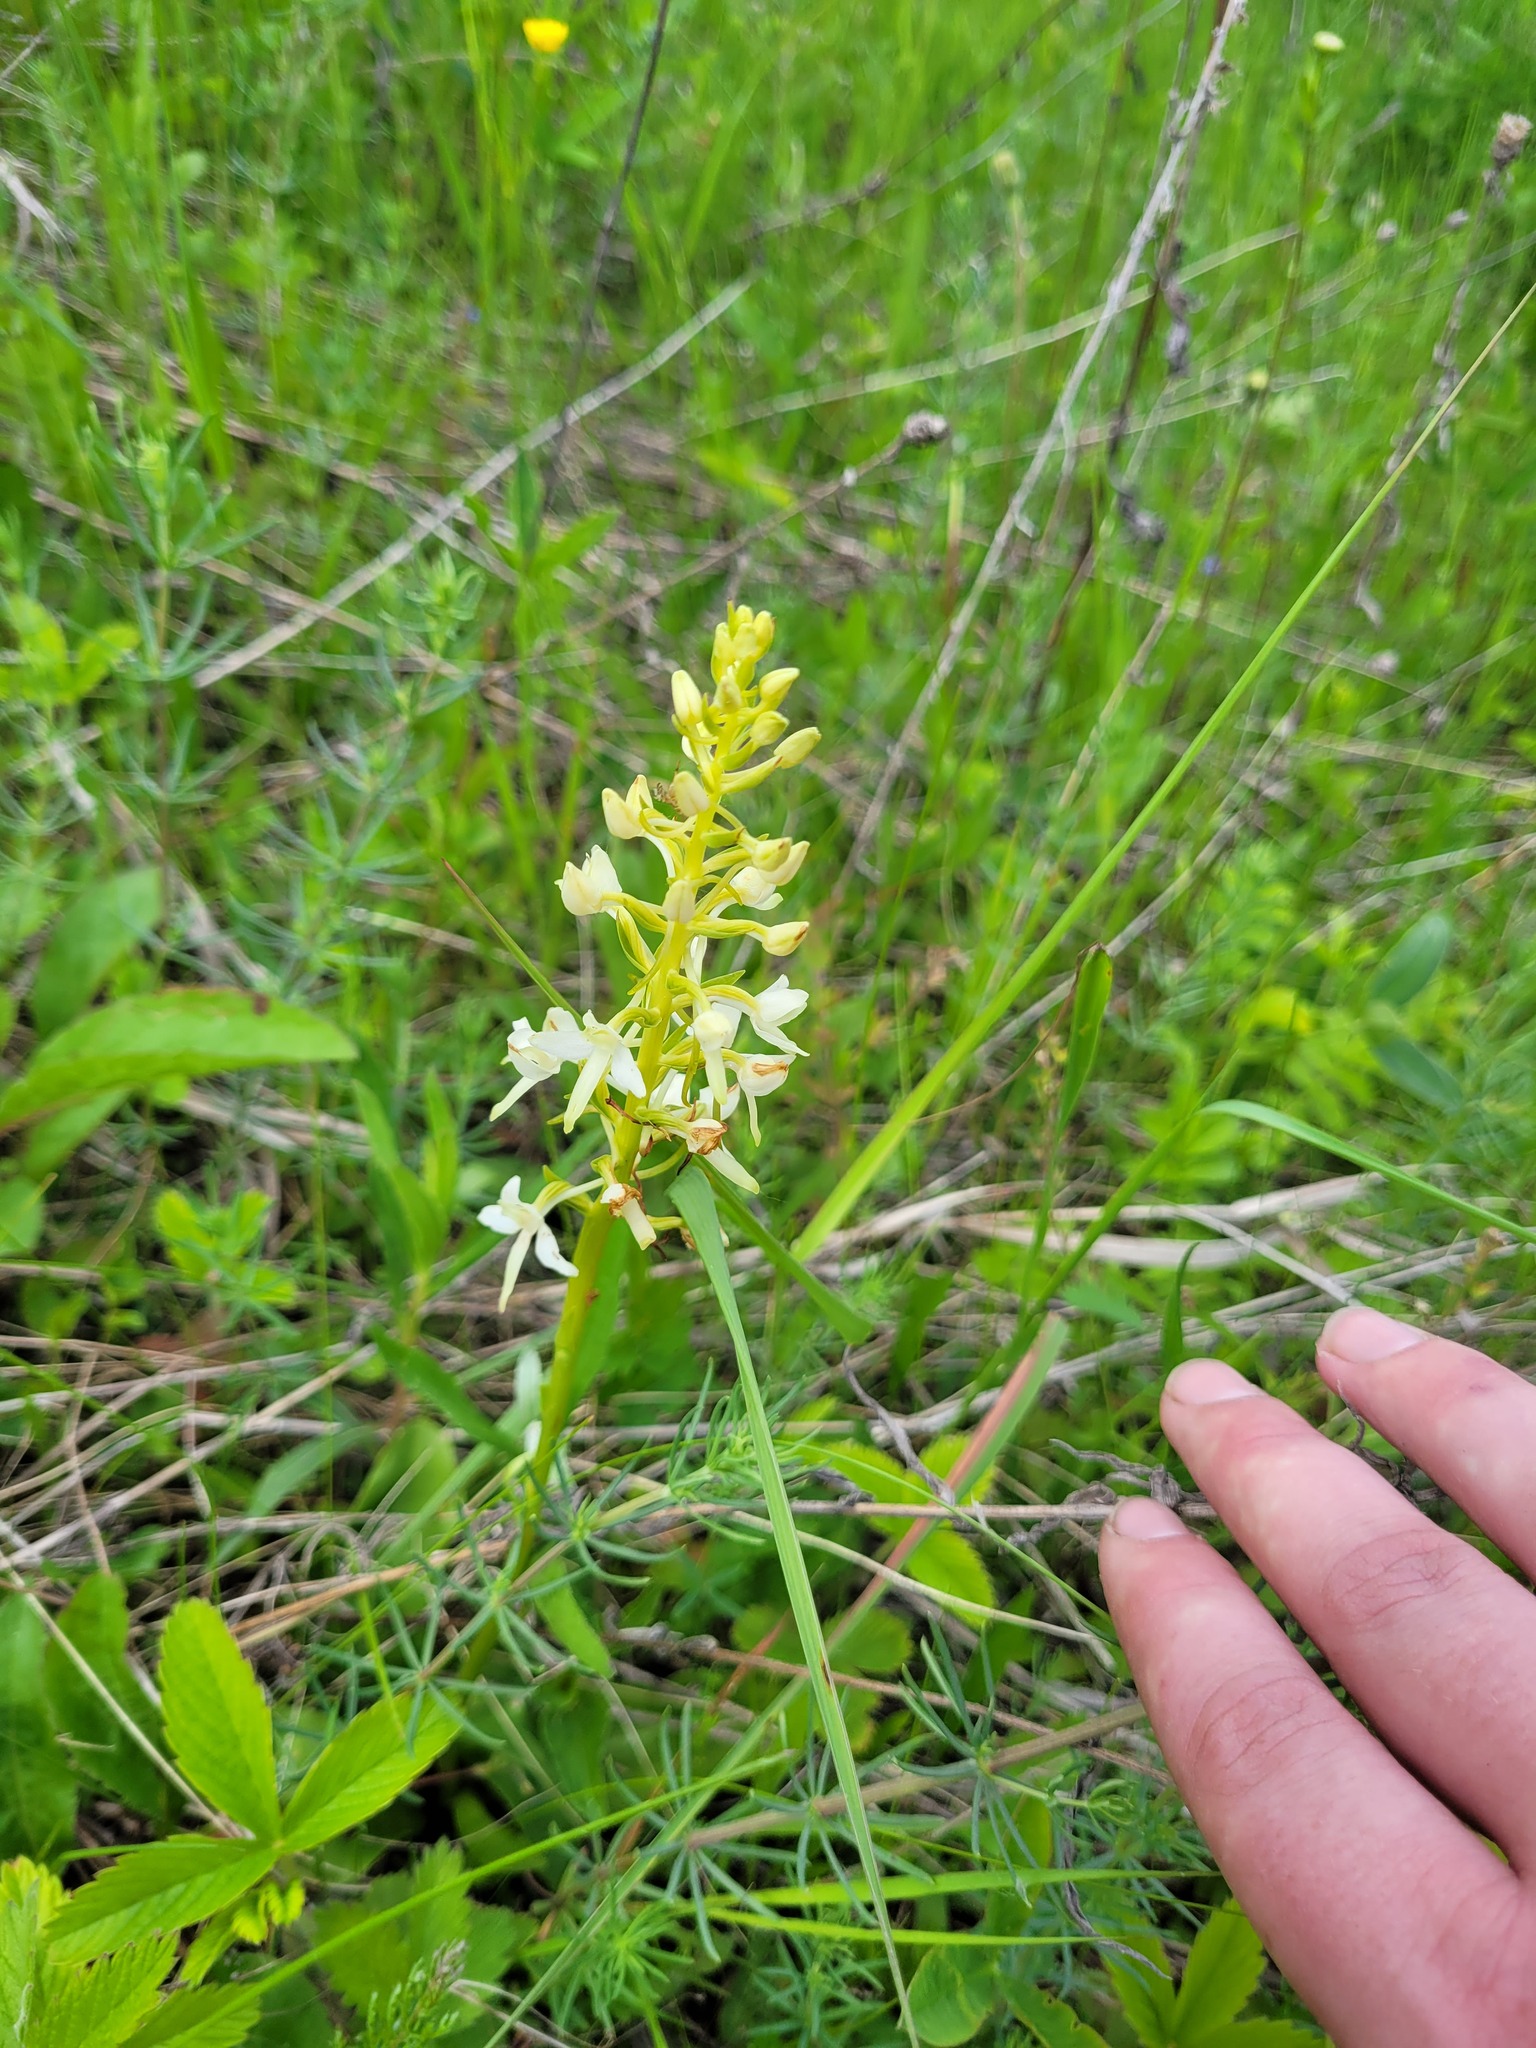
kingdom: Plantae
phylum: Tracheophyta
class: Liliopsida
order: Asparagales
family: Orchidaceae
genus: Platanthera
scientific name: Platanthera bifolia
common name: Lesser butterfly-orchid
